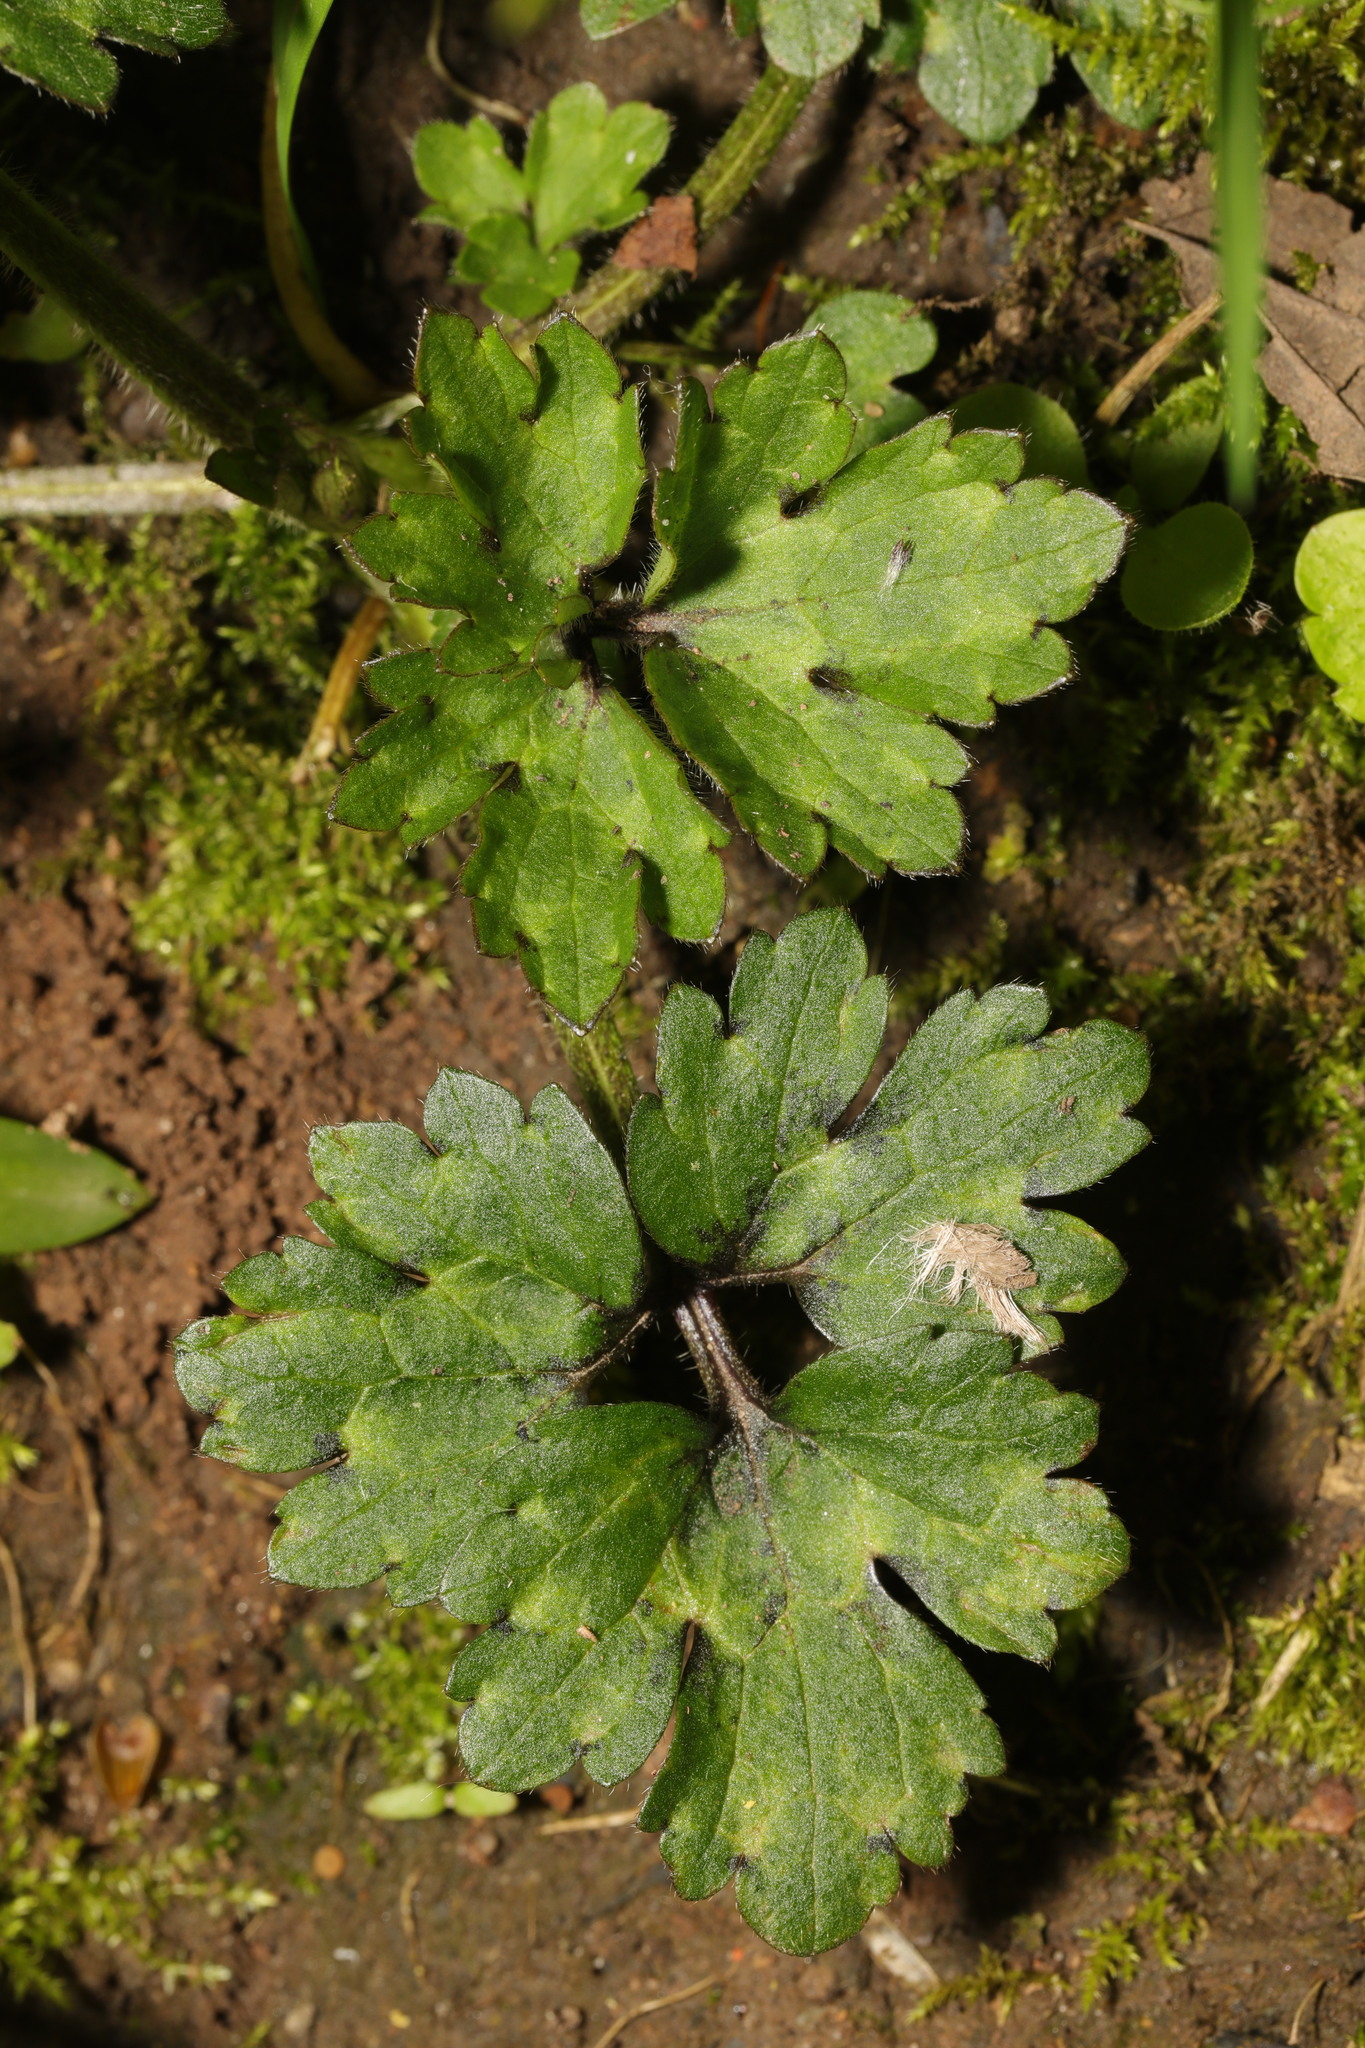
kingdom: Plantae
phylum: Tracheophyta
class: Magnoliopsida
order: Ranunculales
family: Ranunculaceae
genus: Ranunculus
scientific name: Ranunculus repens
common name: Creeping buttercup
